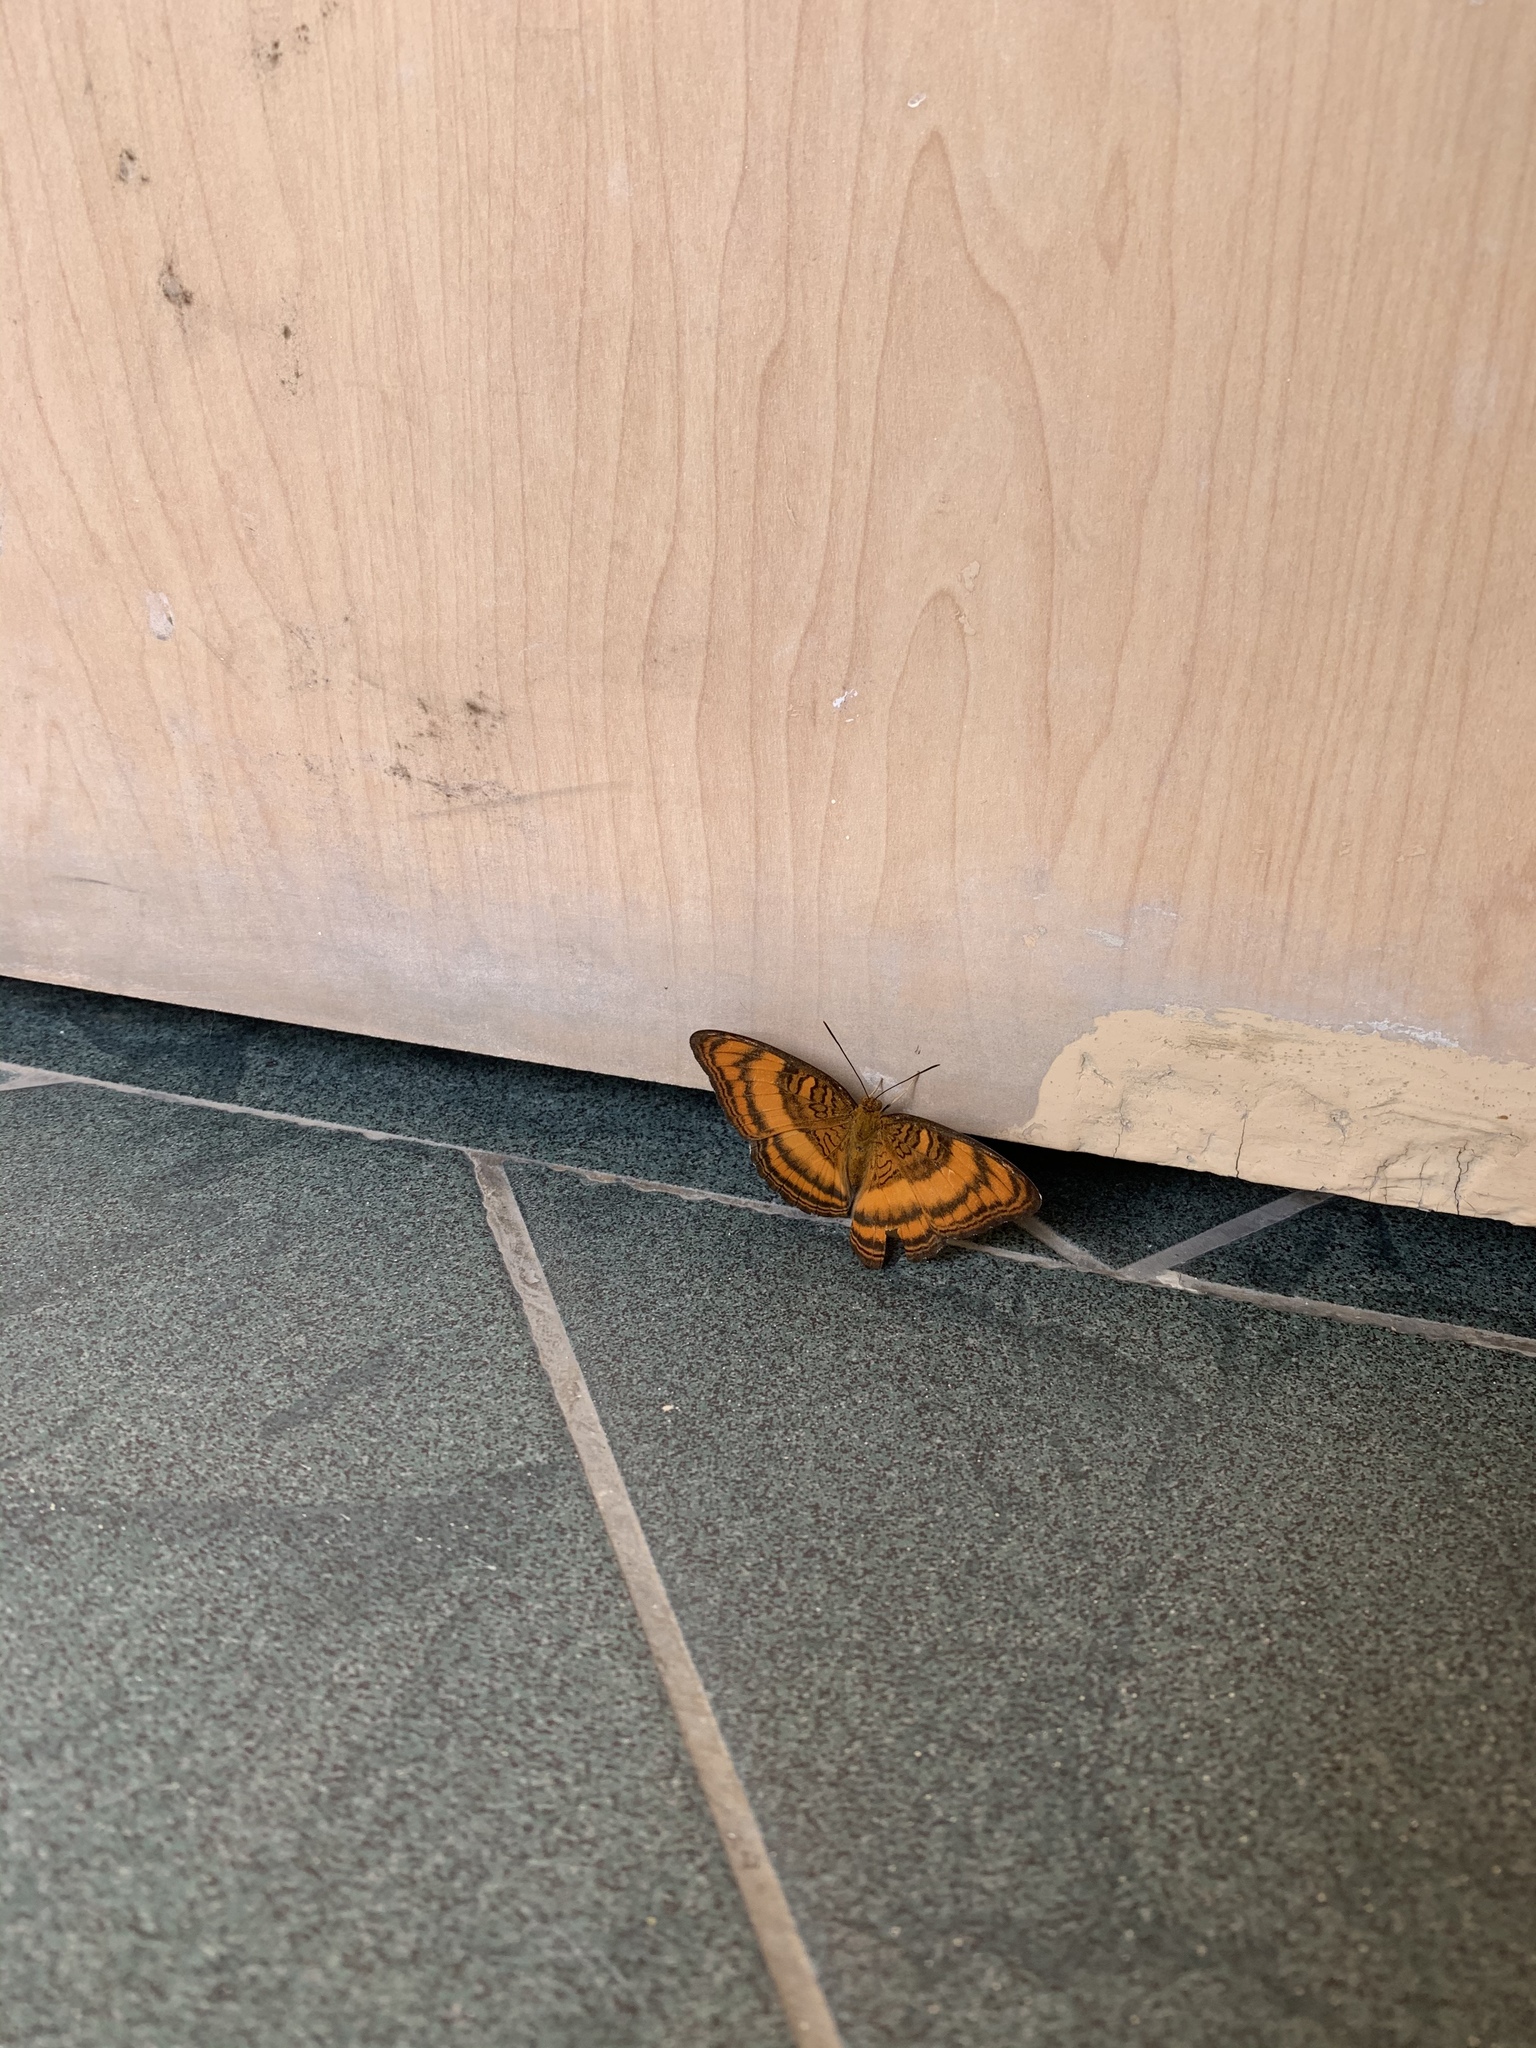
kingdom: Animalia
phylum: Arthropoda
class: Insecta
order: Lepidoptera
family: Nymphalidae
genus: Pandita
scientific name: Pandita sinope
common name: Colonel
